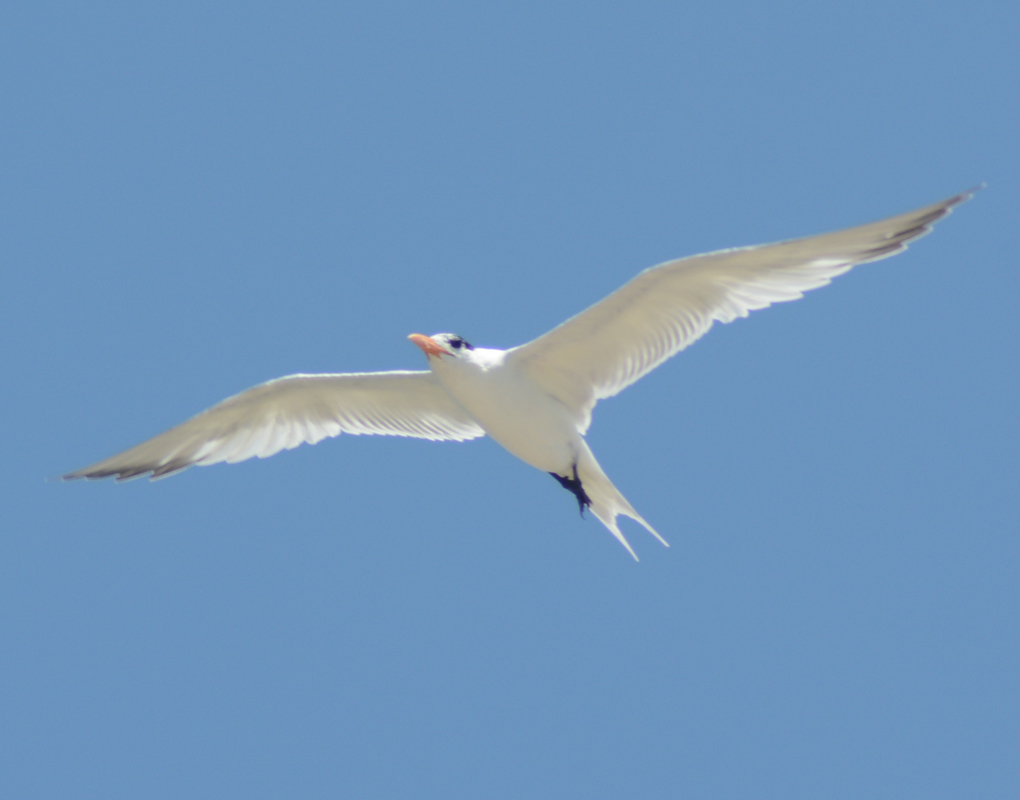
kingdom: Animalia
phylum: Chordata
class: Aves
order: Charadriiformes
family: Laridae
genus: Thalasseus
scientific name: Thalasseus maximus
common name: Royal tern
